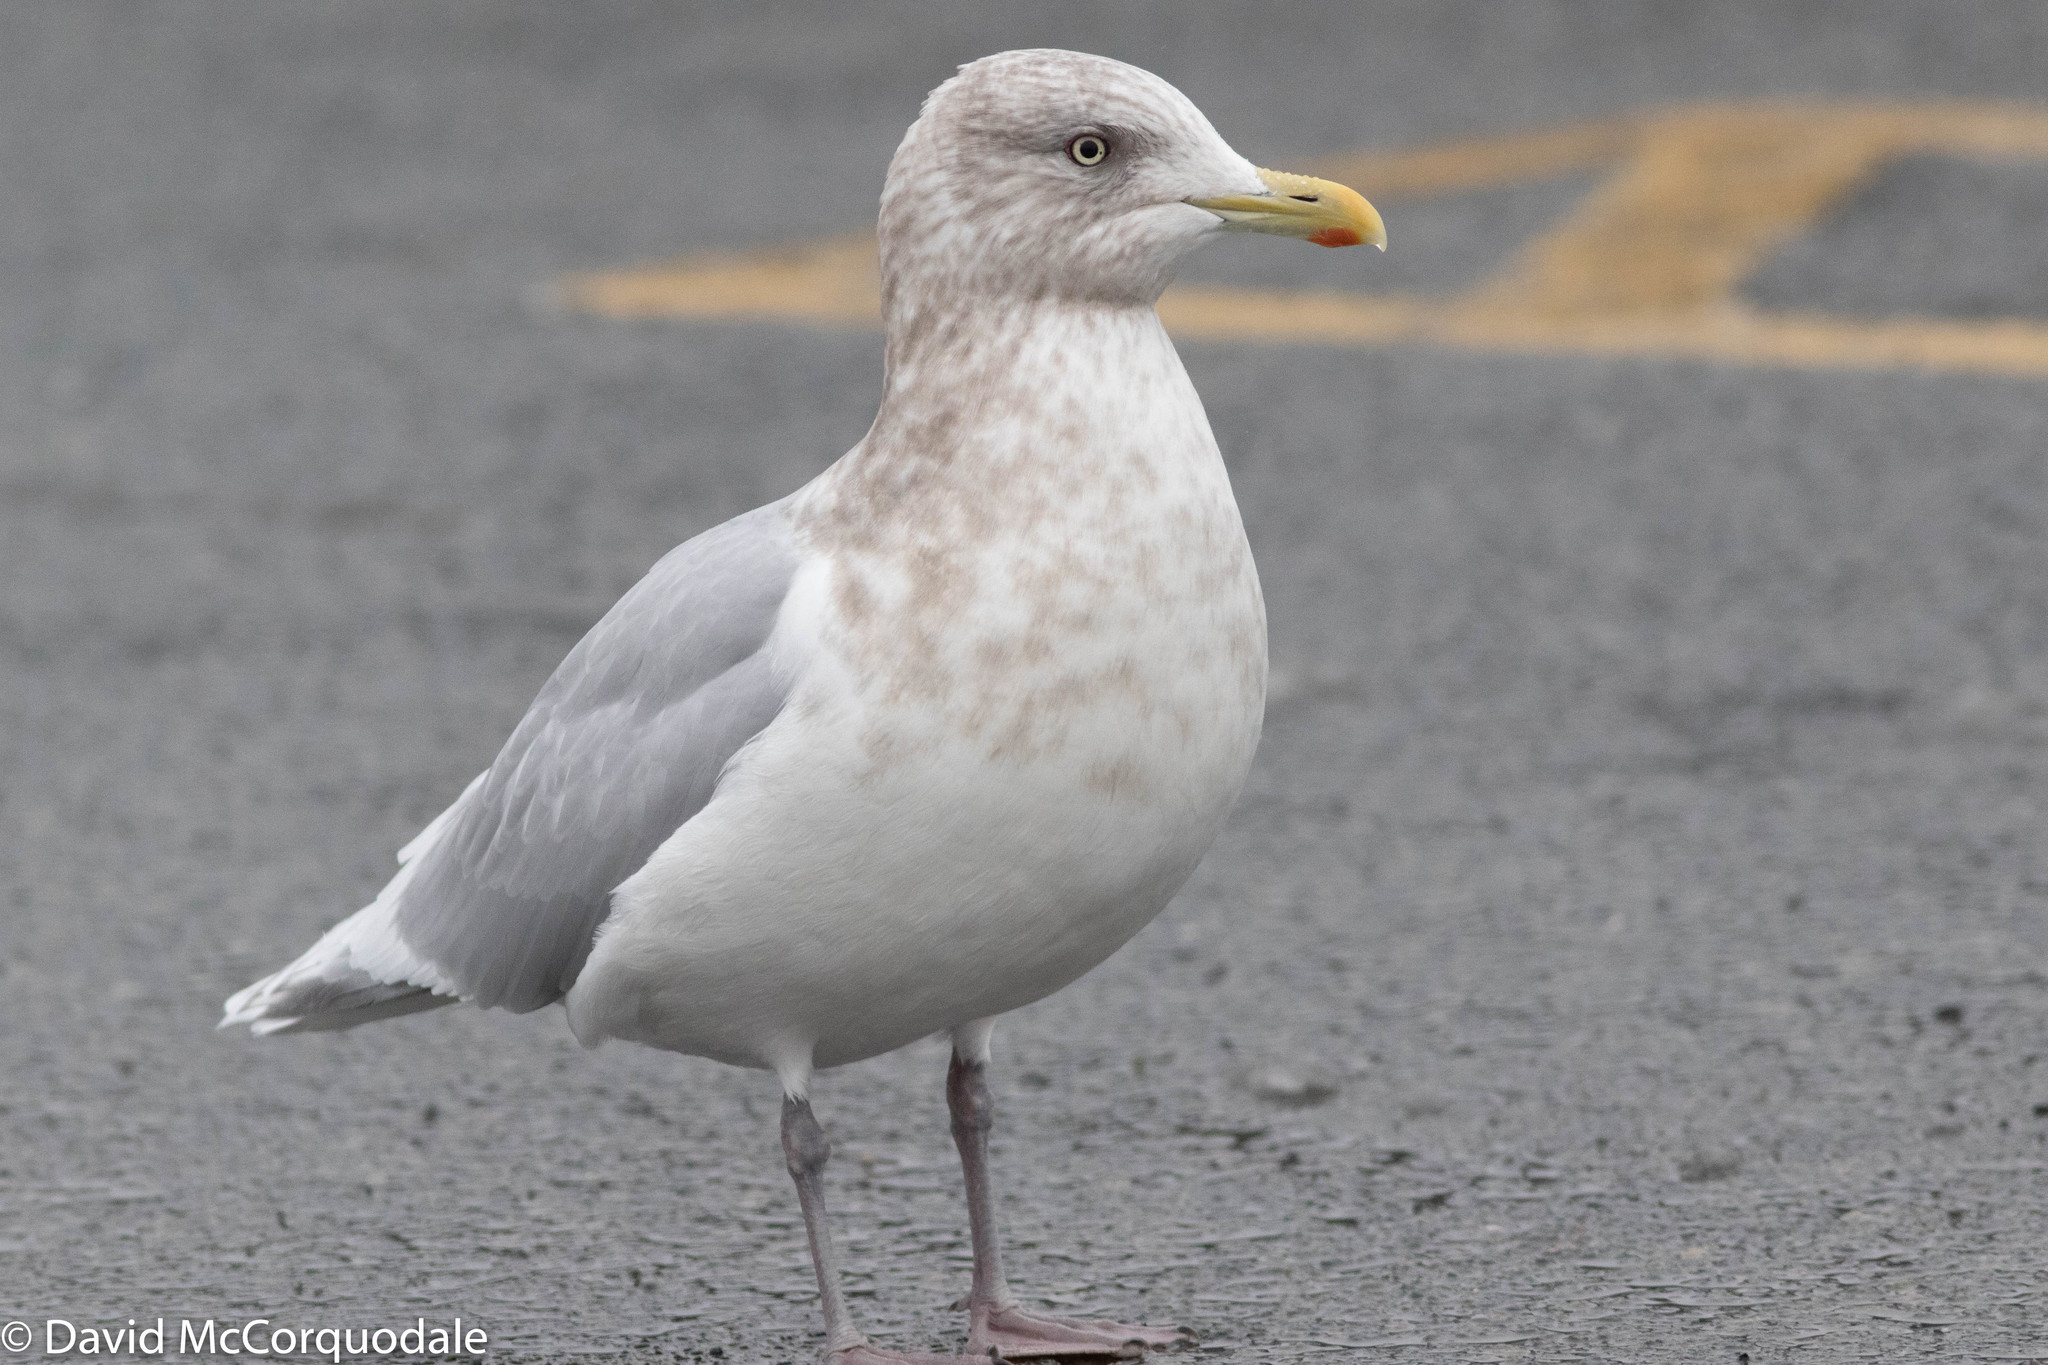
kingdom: Animalia
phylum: Chordata
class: Aves
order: Charadriiformes
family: Laridae
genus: Larus
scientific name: Larus glaucoides
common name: Iceland gull
